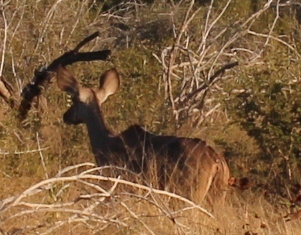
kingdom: Animalia
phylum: Chordata
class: Mammalia
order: Artiodactyla
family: Bovidae
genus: Tragelaphus
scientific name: Tragelaphus strepsiceros
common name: Greater kudu
